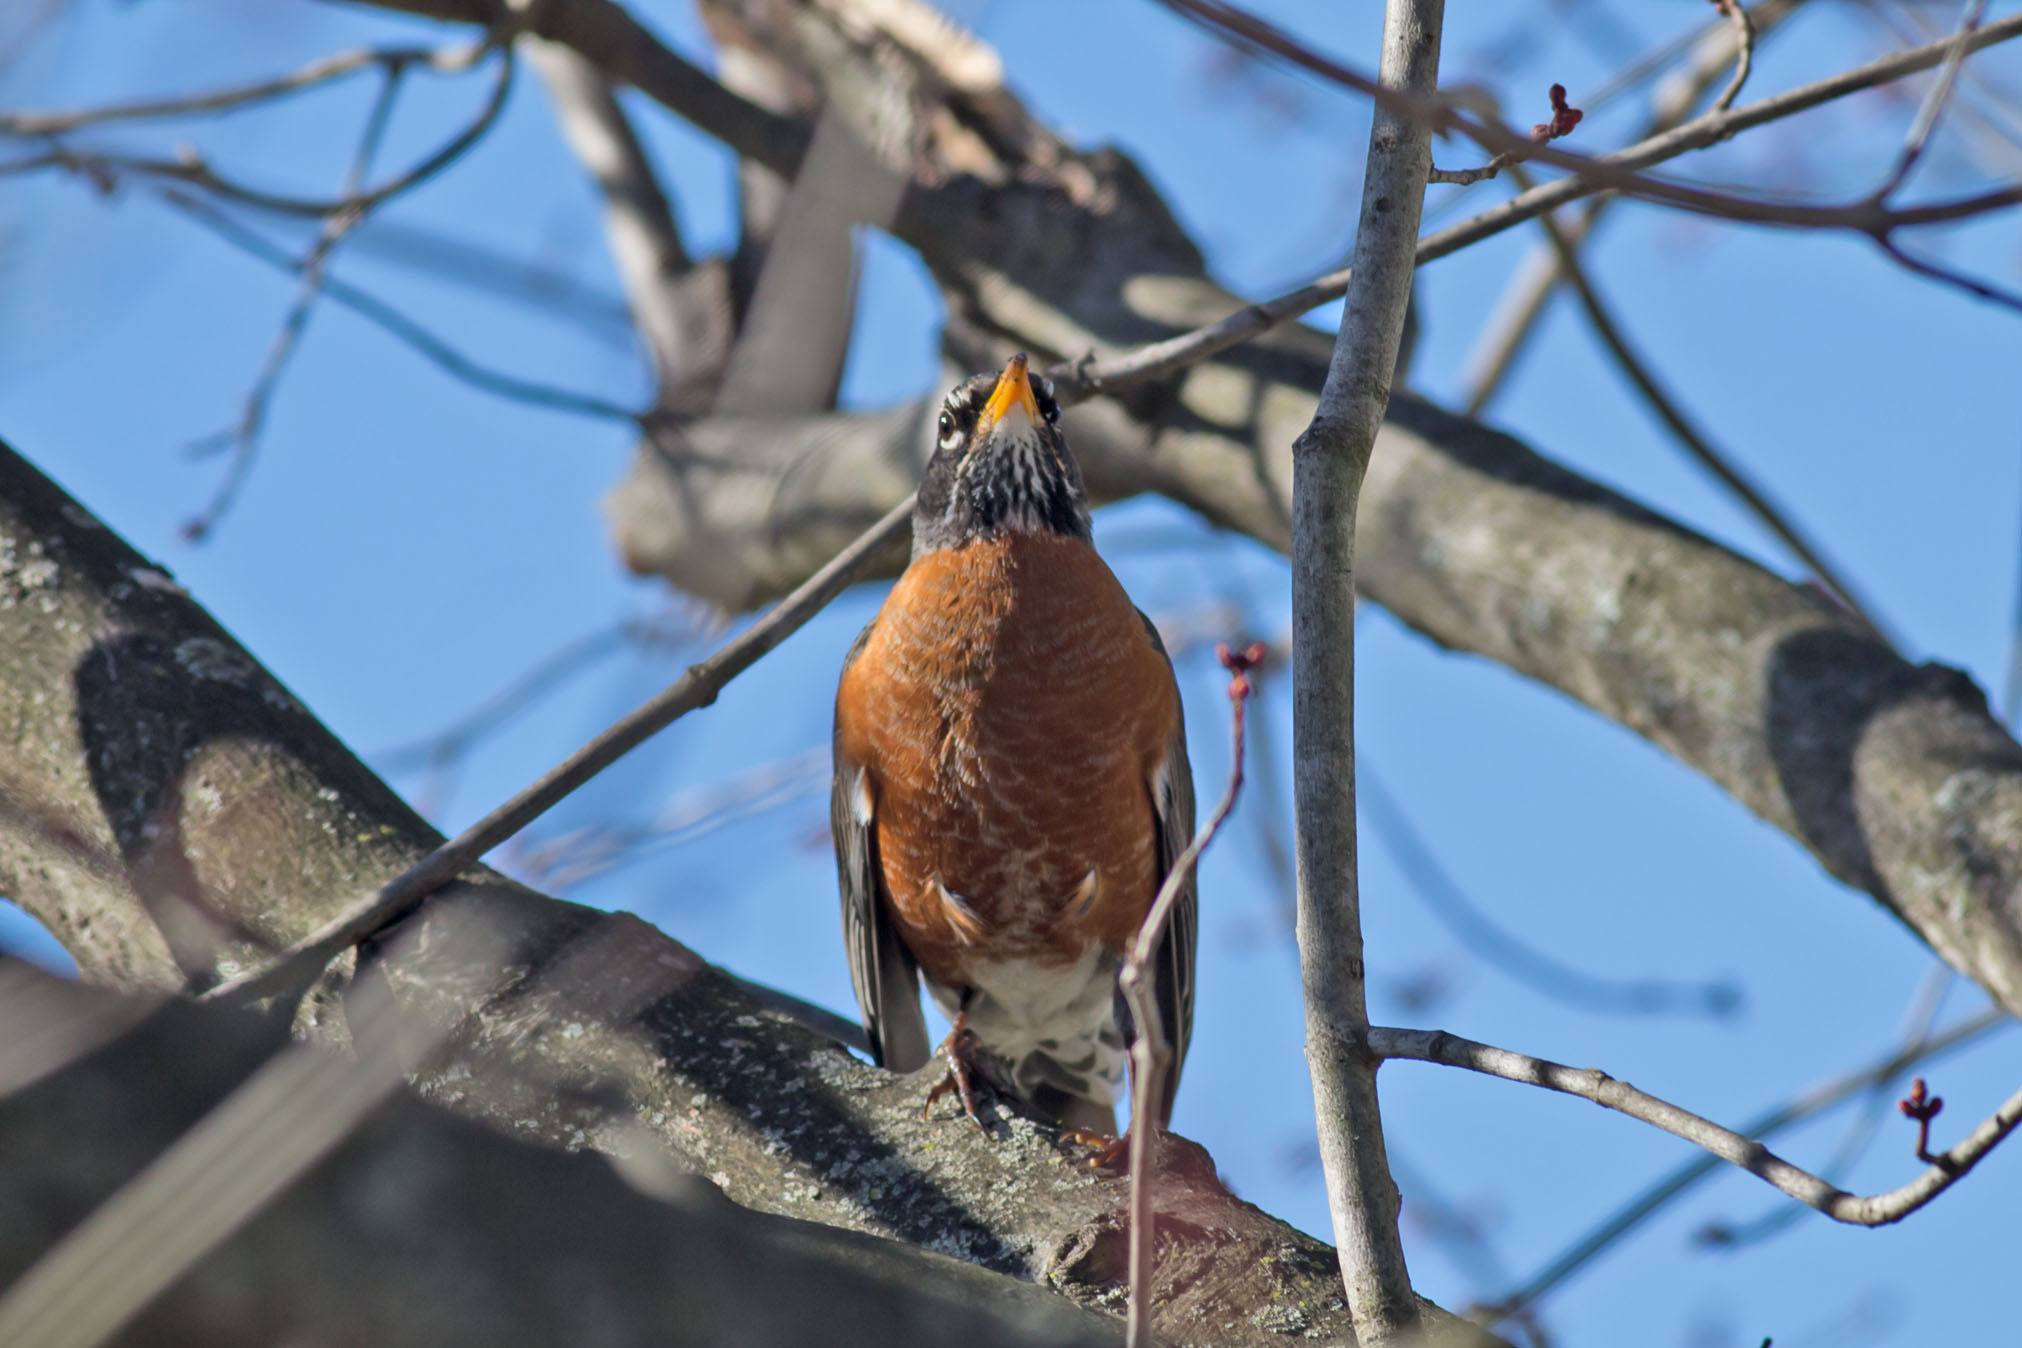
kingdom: Animalia
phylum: Chordata
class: Aves
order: Passeriformes
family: Turdidae
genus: Turdus
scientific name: Turdus migratorius
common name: American robin
